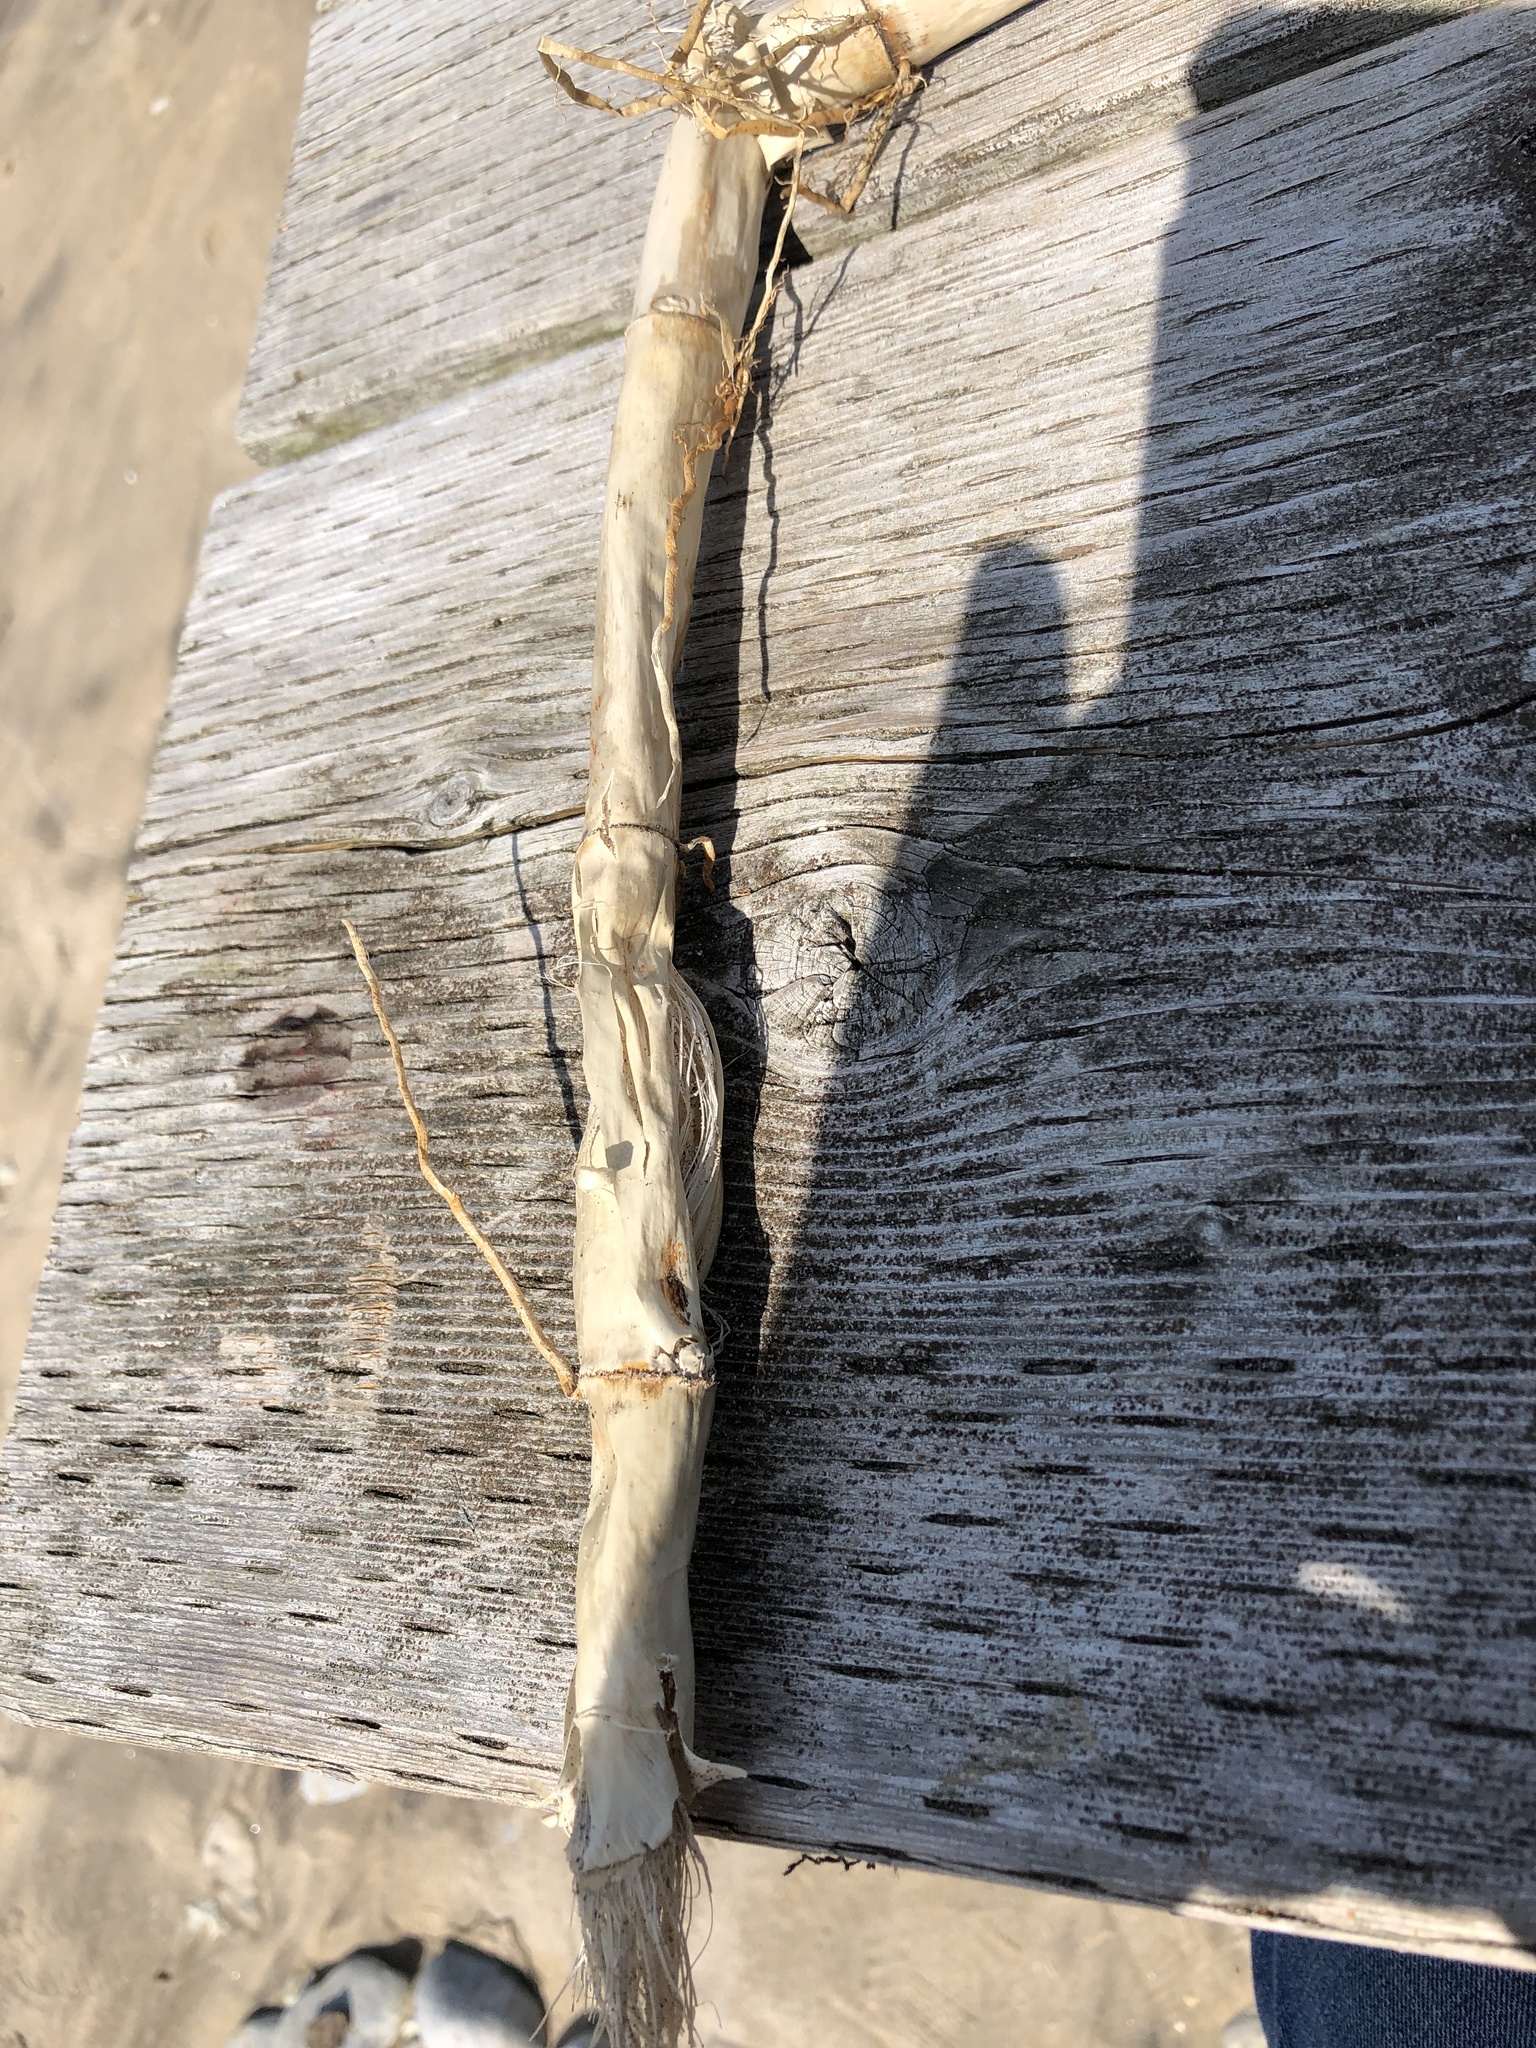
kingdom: Plantae
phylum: Tracheophyta
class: Liliopsida
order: Poales
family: Poaceae
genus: Phragmites
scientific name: Phragmites australis
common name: Common reed
